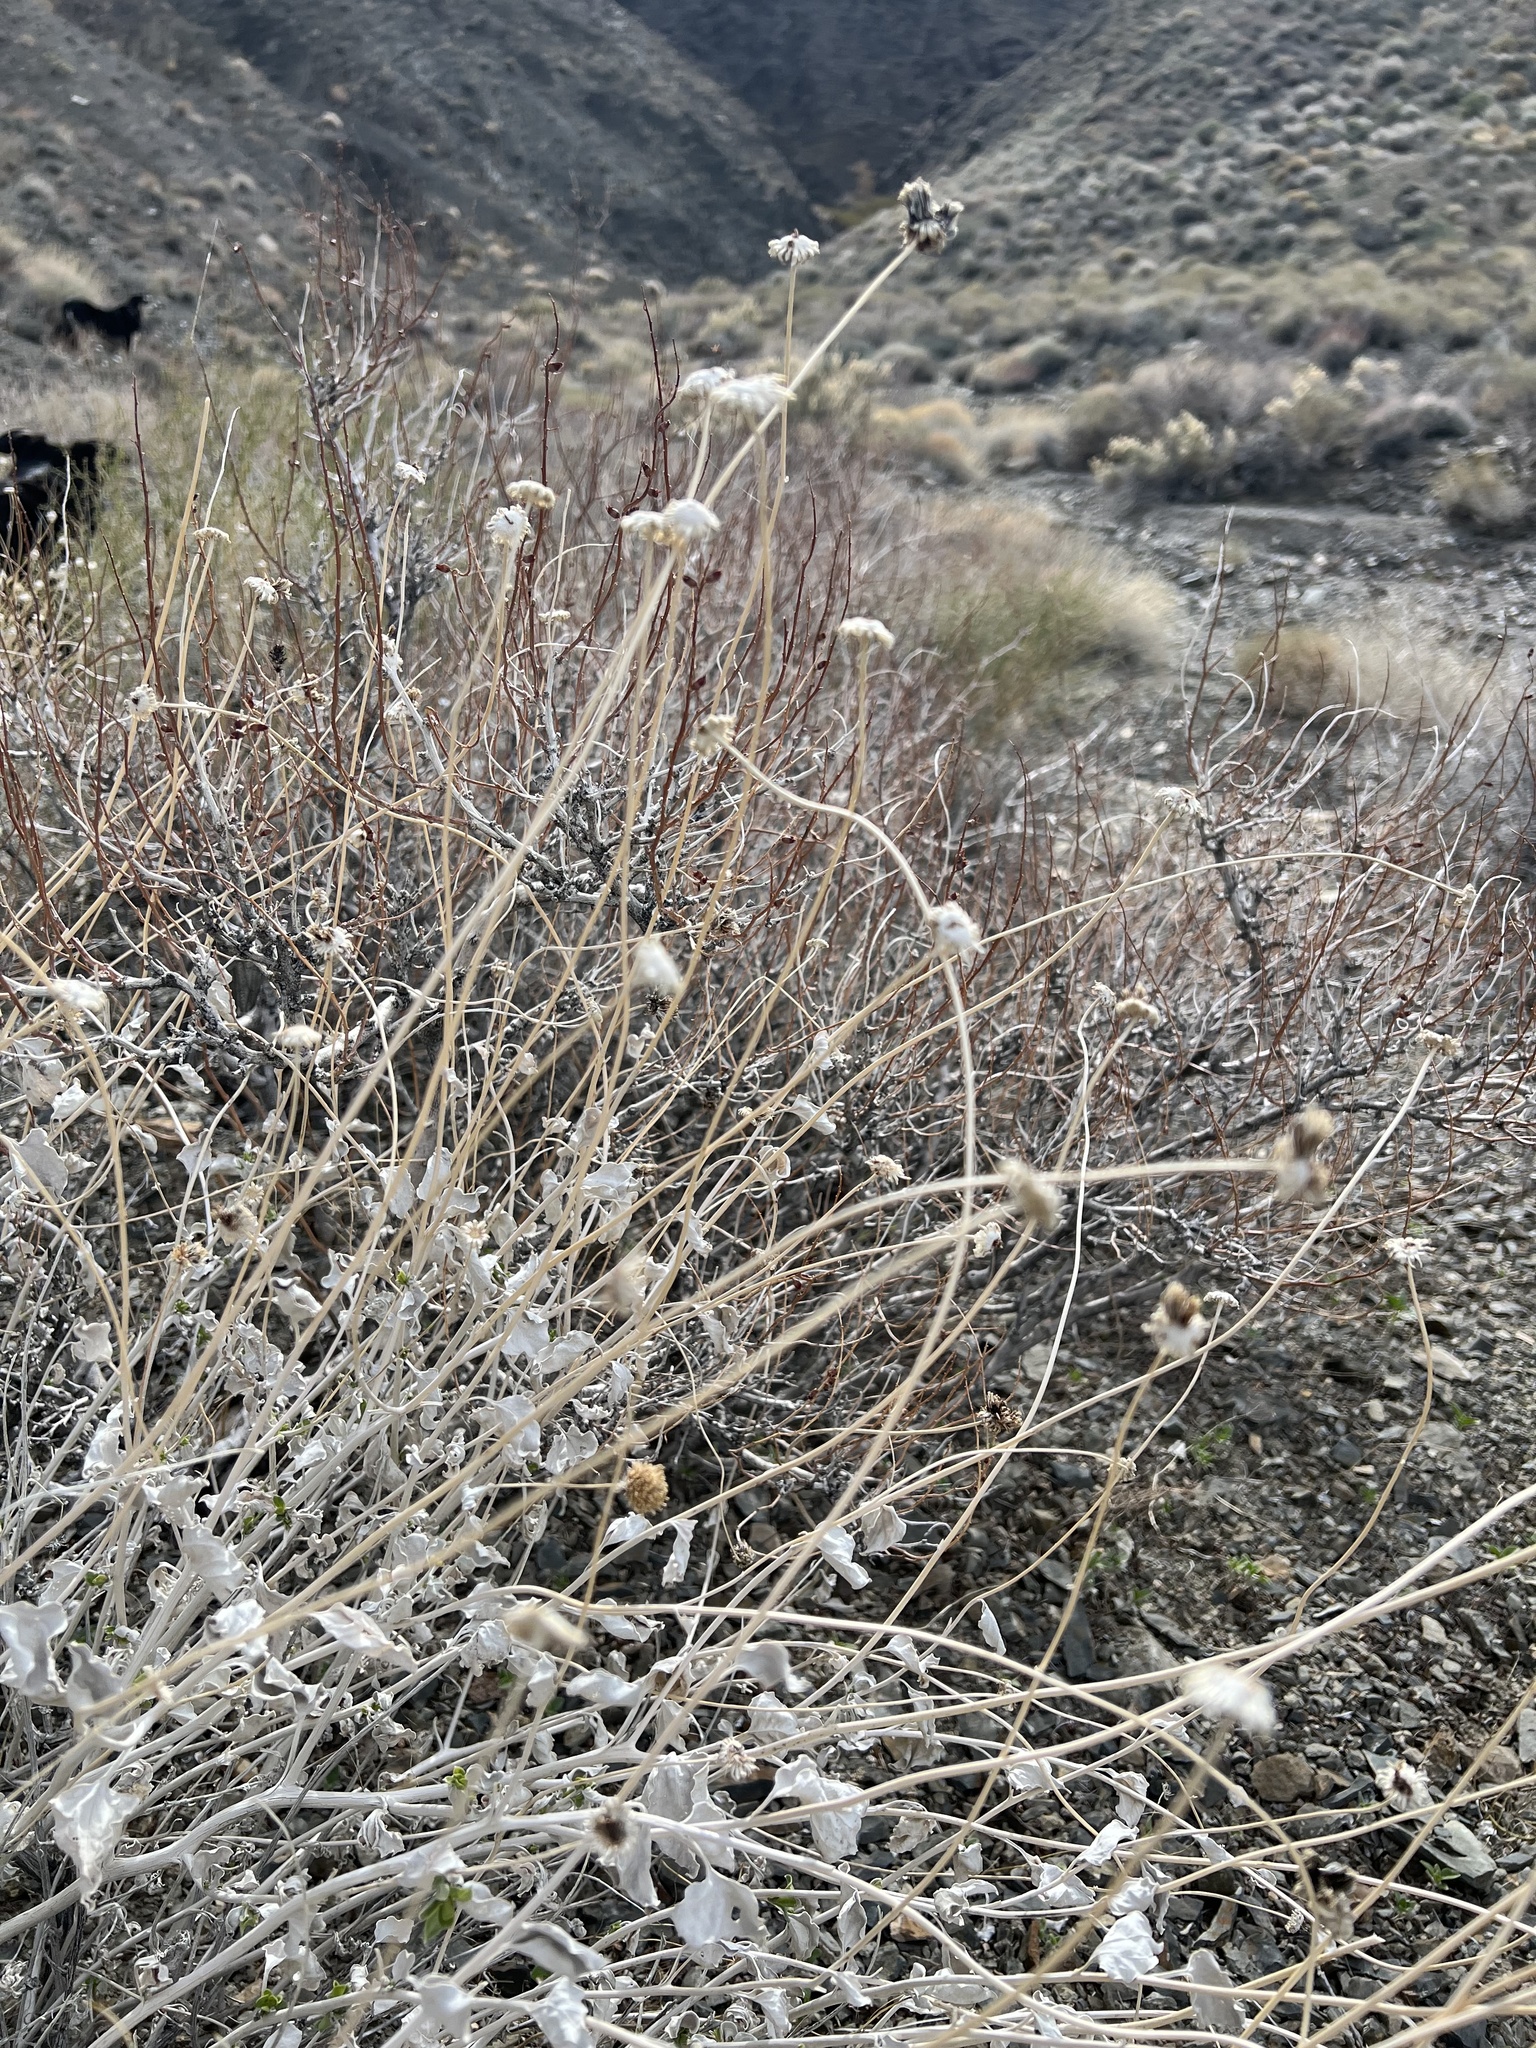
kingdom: Plantae
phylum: Tracheophyta
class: Magnoliopsida
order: Asterales
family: Asteraceae
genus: Encelia
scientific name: Encelia actoni
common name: Acton encelia
